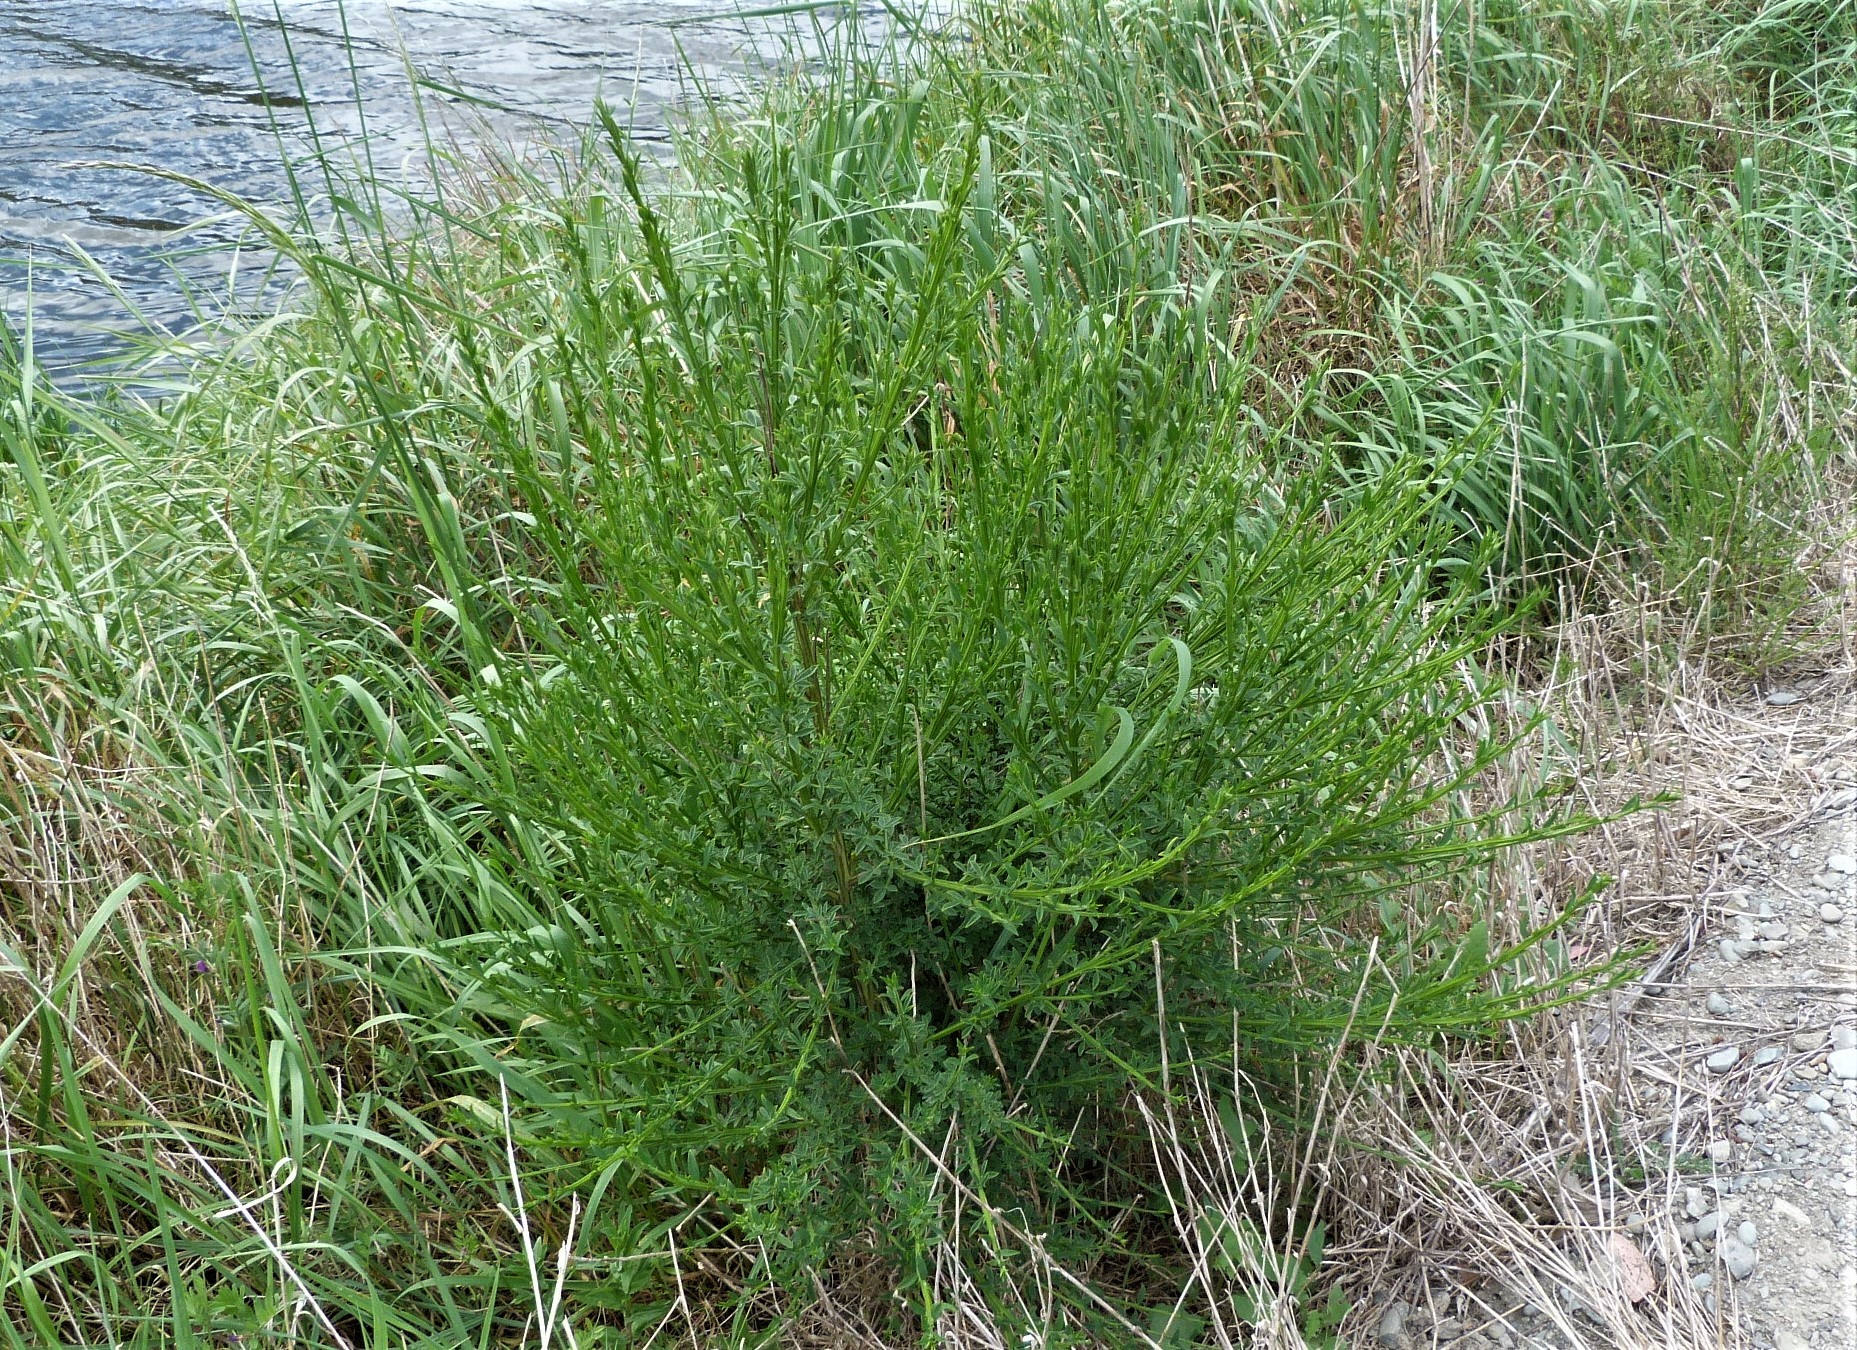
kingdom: Plantae
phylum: Tracheophyta
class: Magnoliopsida
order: Fabales
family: Fabaceae
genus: Cytisus
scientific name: Cytisus scoparius
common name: Scotch broom
